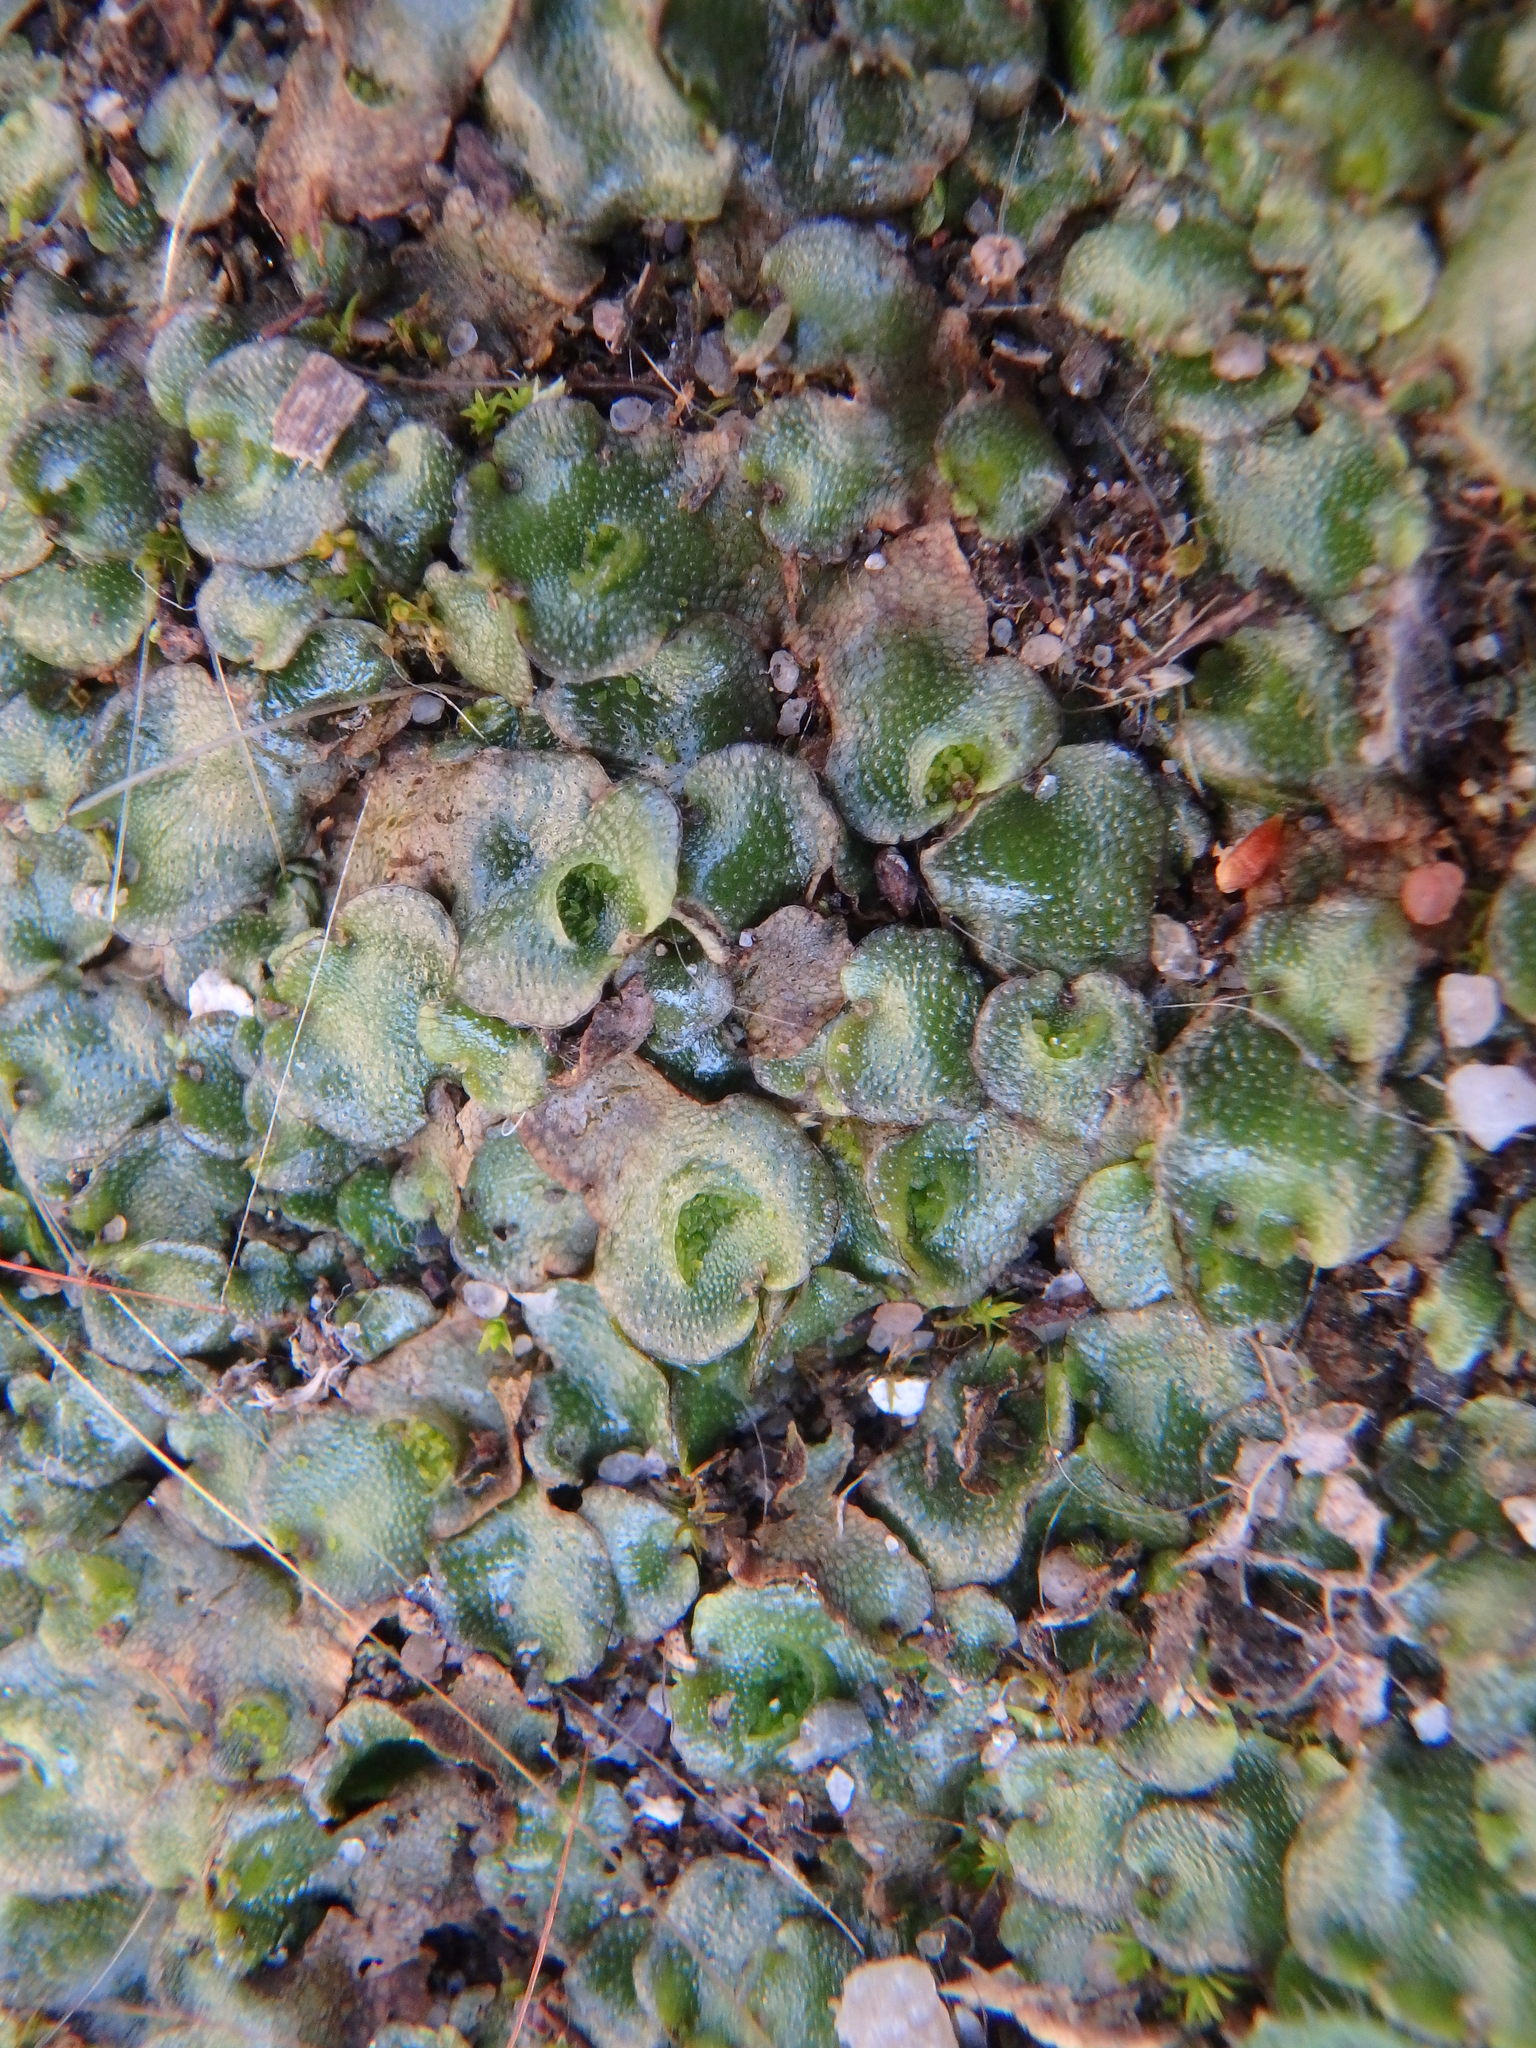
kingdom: Plantae
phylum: Marchantiophyta
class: Marchantiopsida
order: Lunulariales
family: Lunulariaceae
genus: Lunularia
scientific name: Lunularia cruciata
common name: Crescent-cup liverwort
